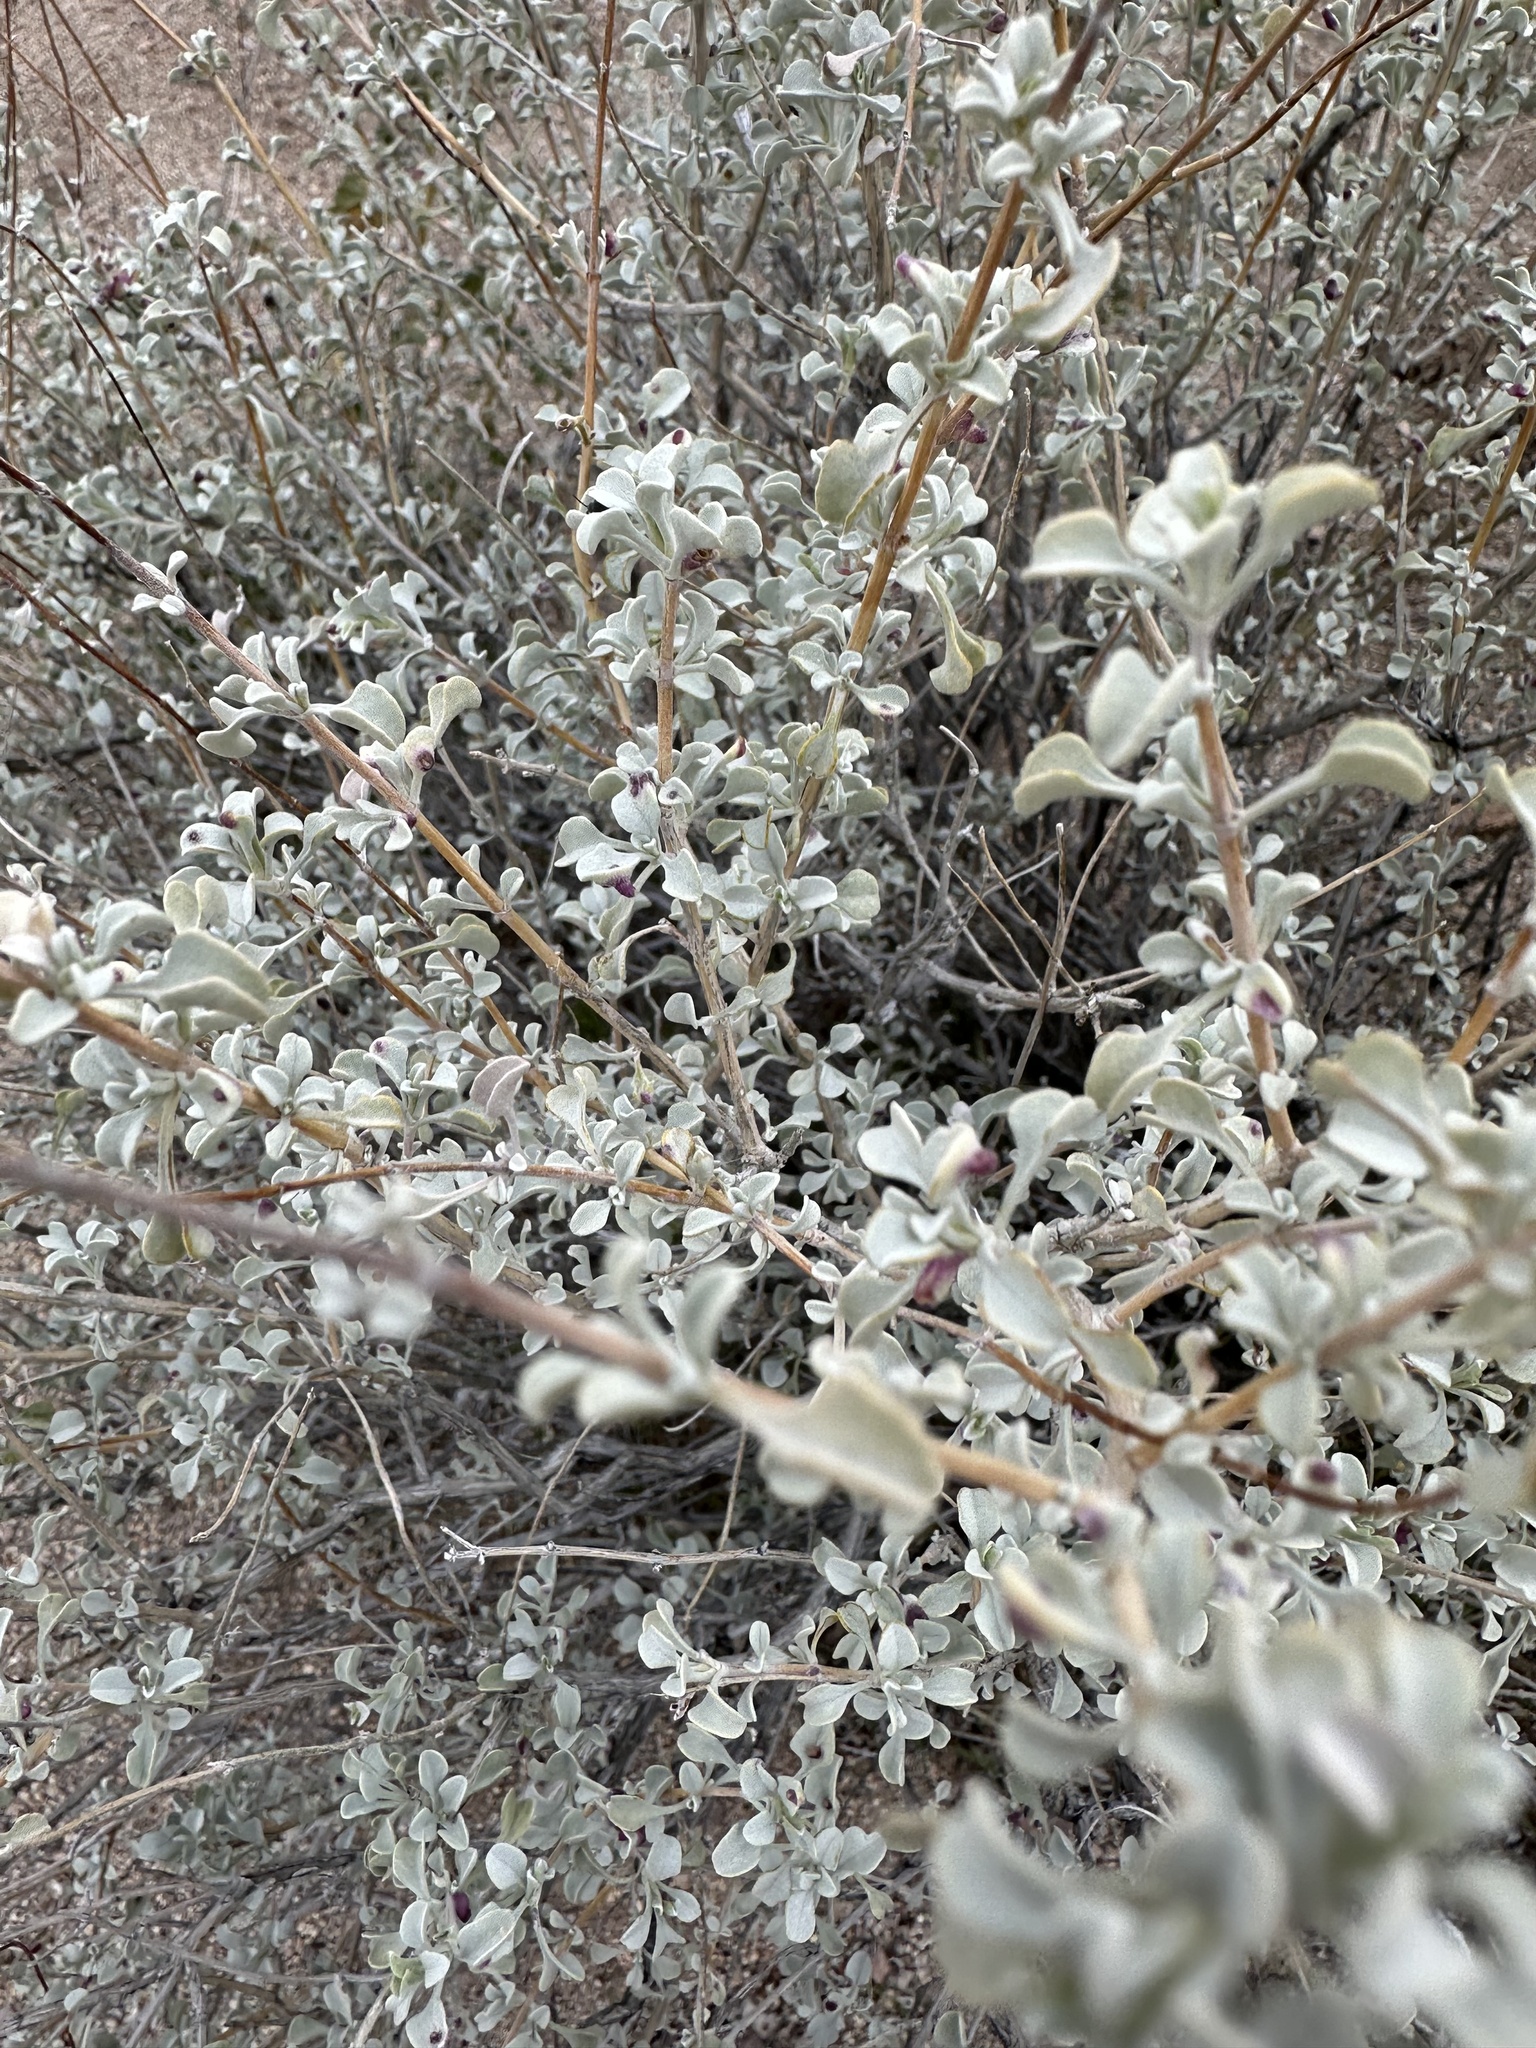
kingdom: Plantae
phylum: Tracheophyta
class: Magnoliopsida
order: Lamiales
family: Lamiaceae
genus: Salvia
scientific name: Salvia dorrii
